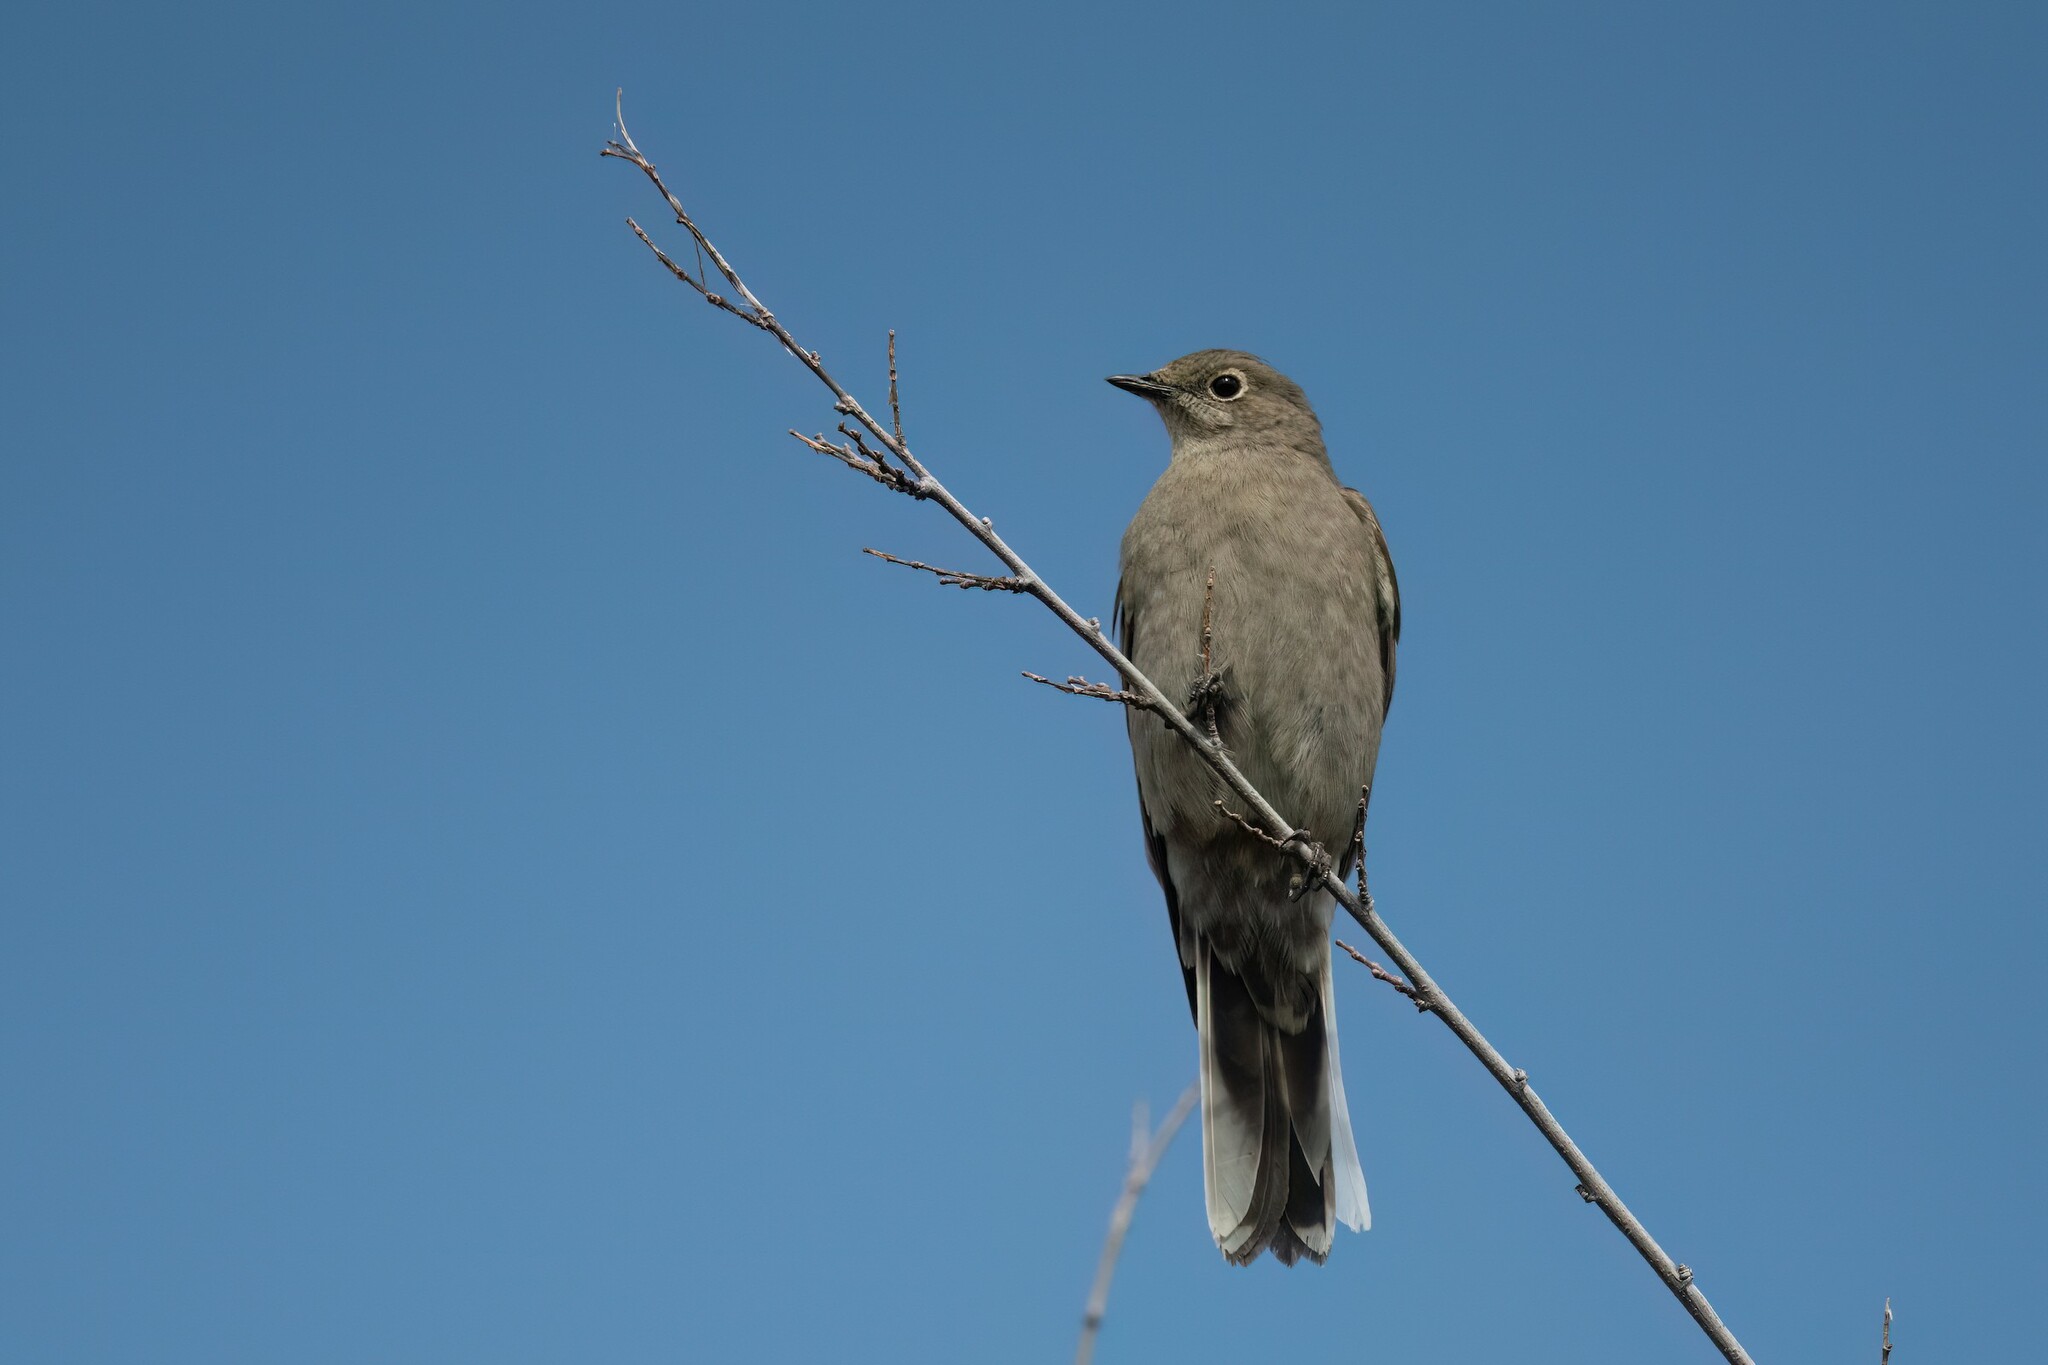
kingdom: Animalia
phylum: Chordata
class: Aves
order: Passeriformes
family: Turdidae
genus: Myadestes
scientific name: Myadestes townsendi
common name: Townsend's solitaire
